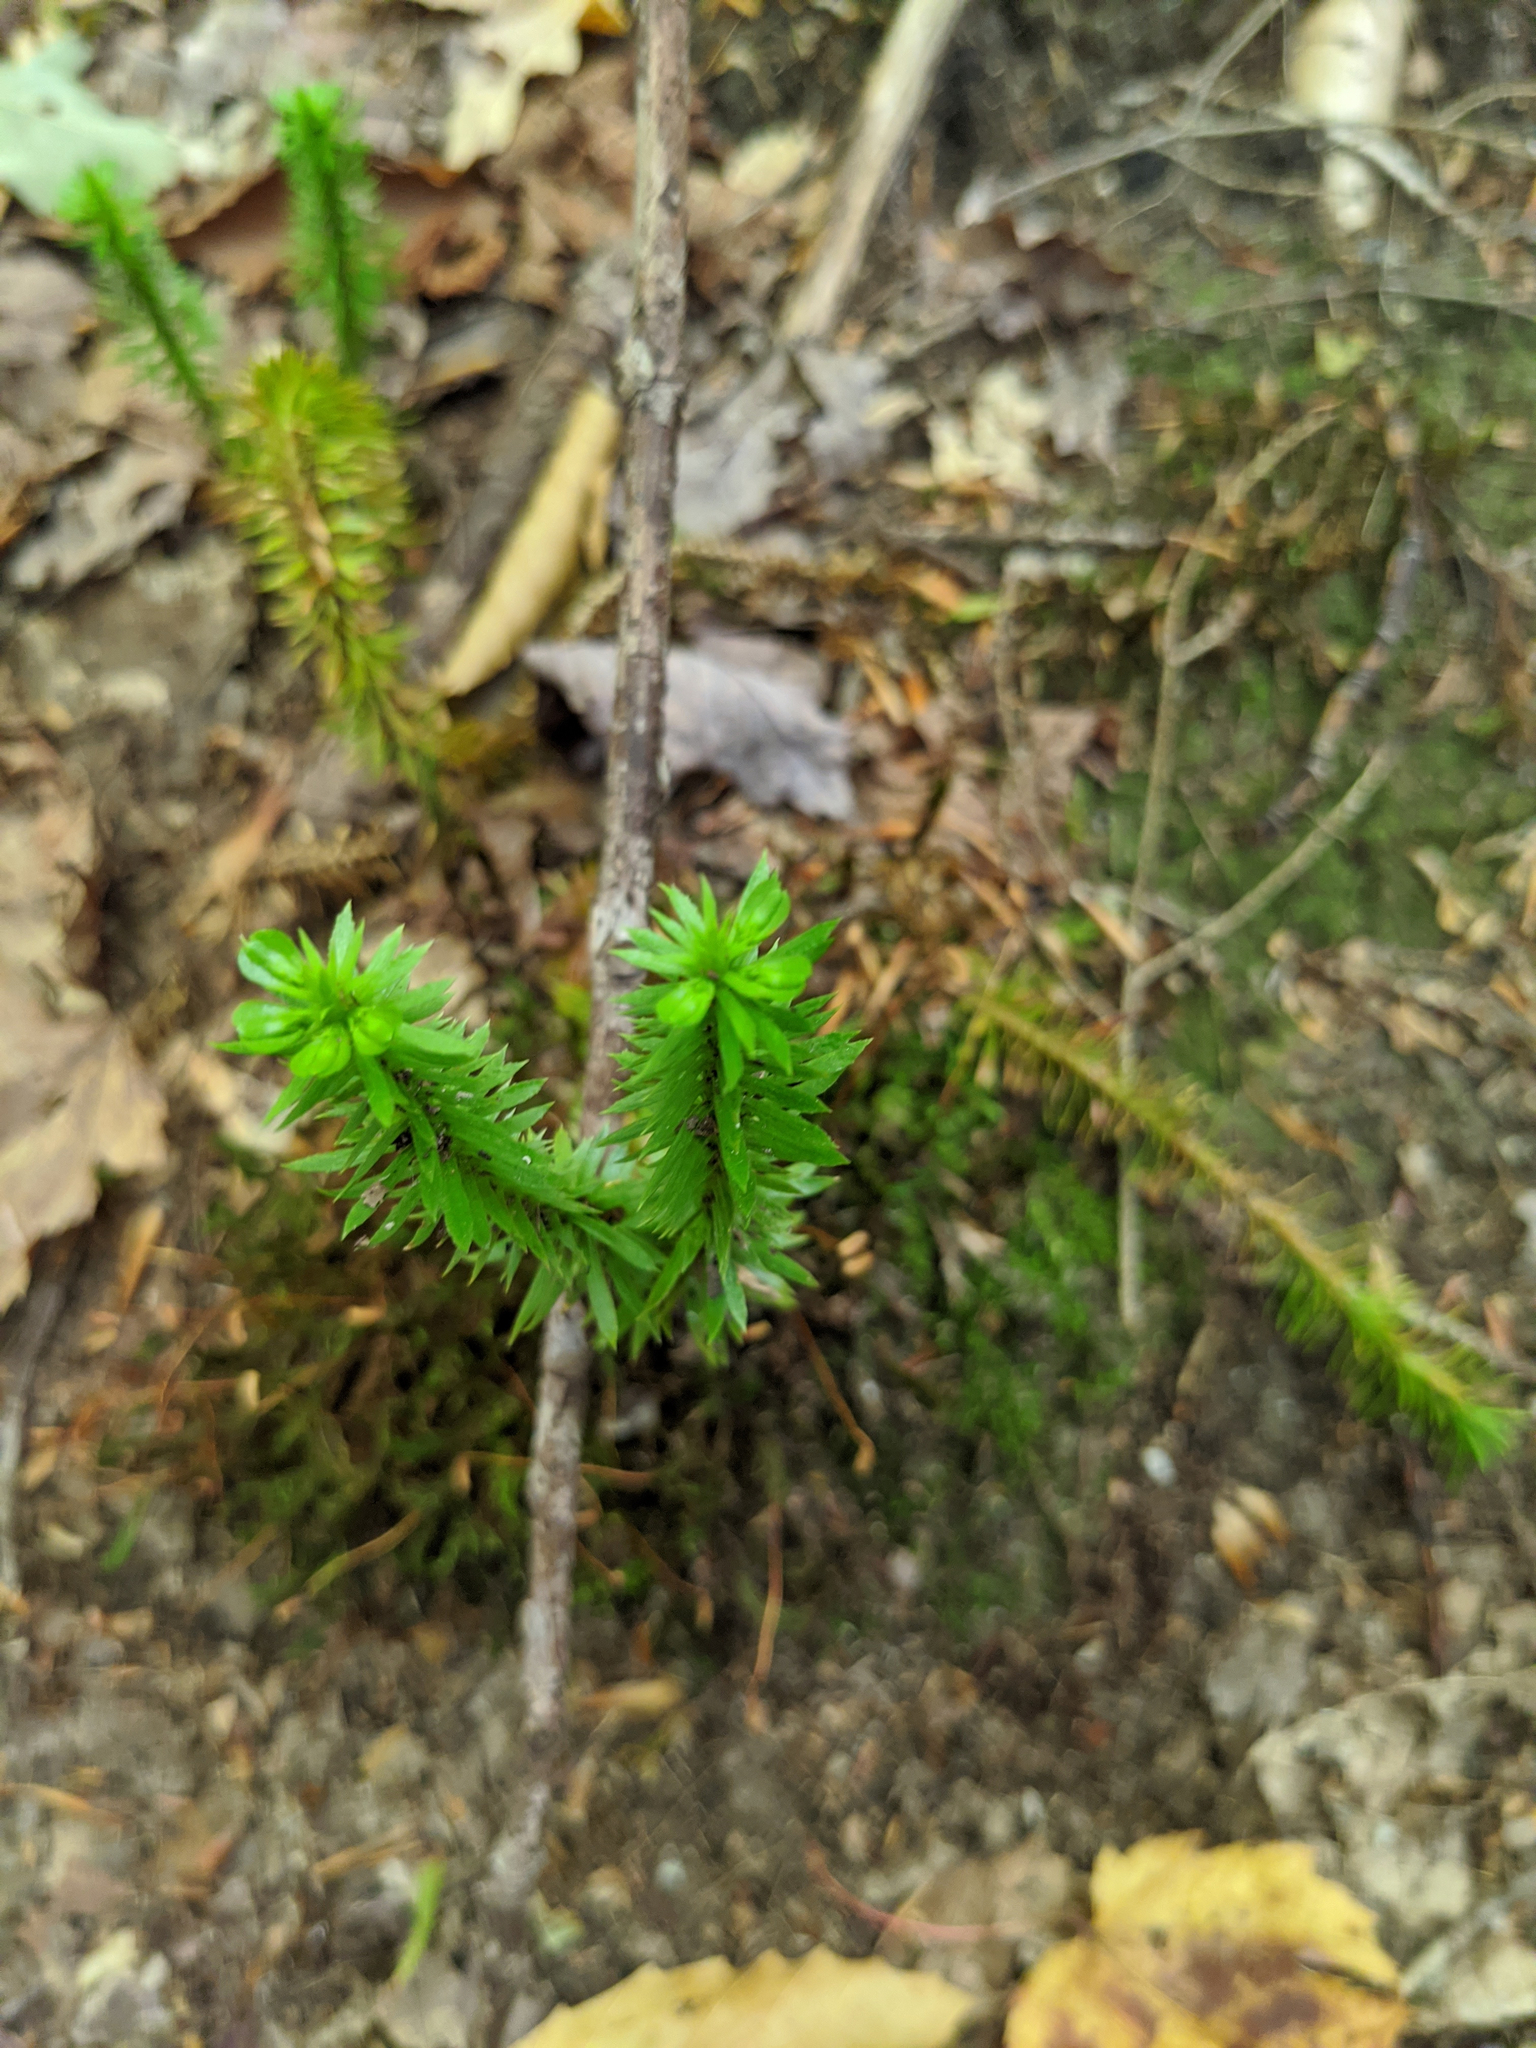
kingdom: Plantae
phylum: Tracheophyta
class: Lycopodiopsida
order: Lycopodiales
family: Lycopodiaceae
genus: Huperzia
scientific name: Huperzia lucidula
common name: Shining clubmoss
